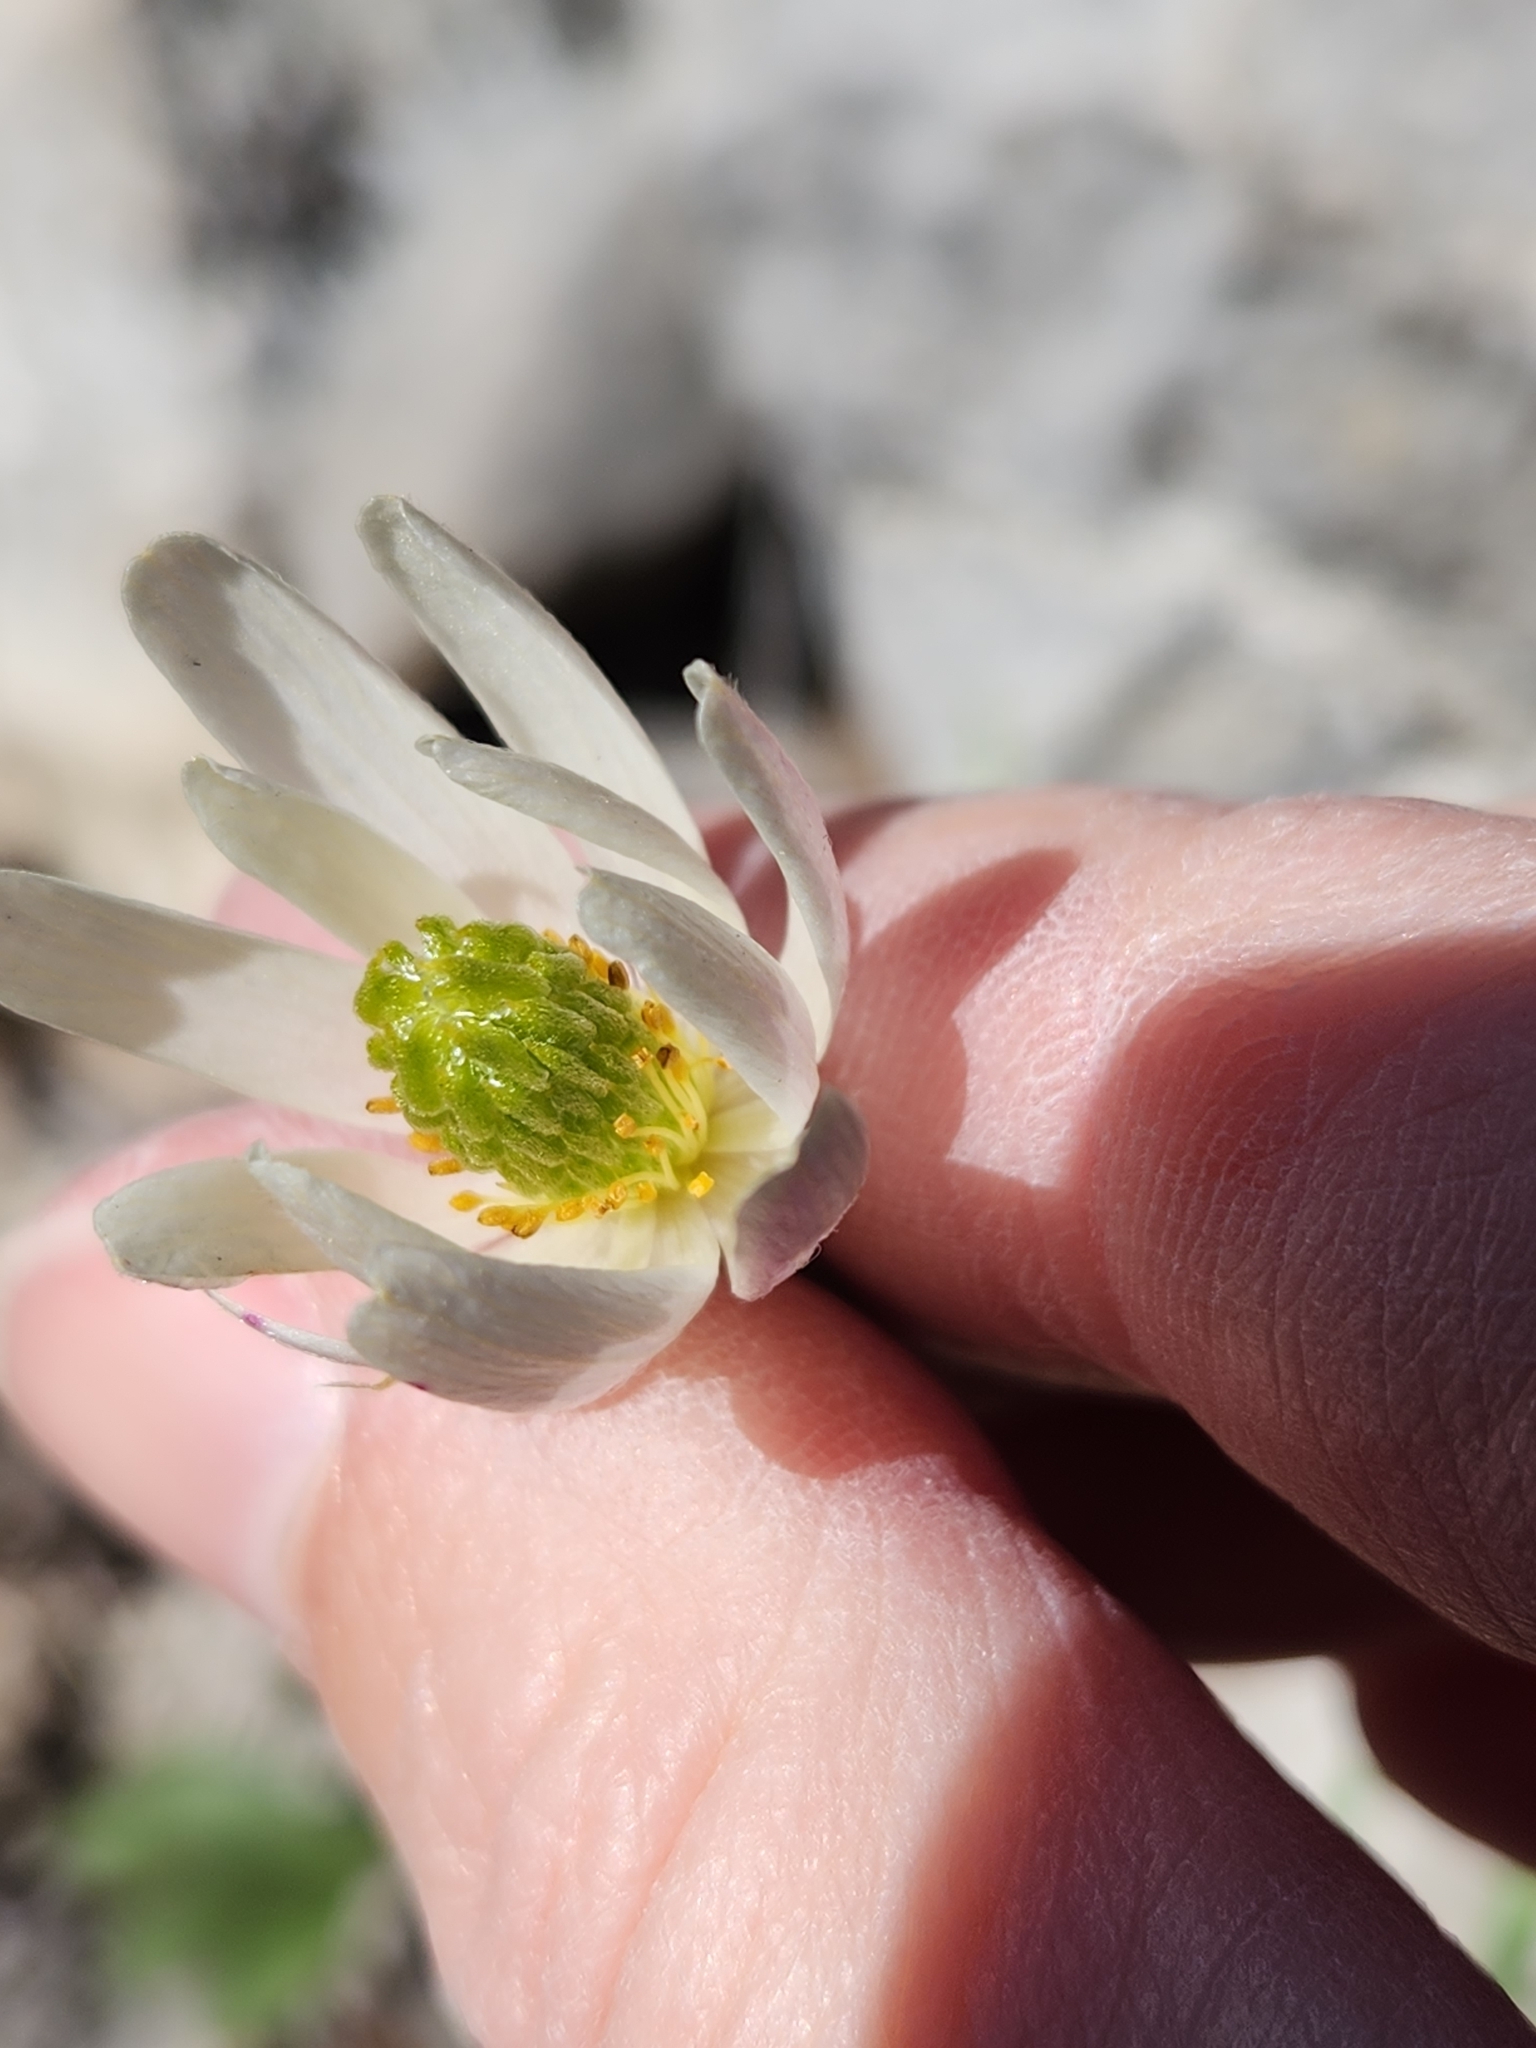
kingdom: Plantae
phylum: Tracheophyta
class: Magnoliopsida
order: Ranunculales
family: Ranunculaceae
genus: Anemone
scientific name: Anemone edwardsiana
